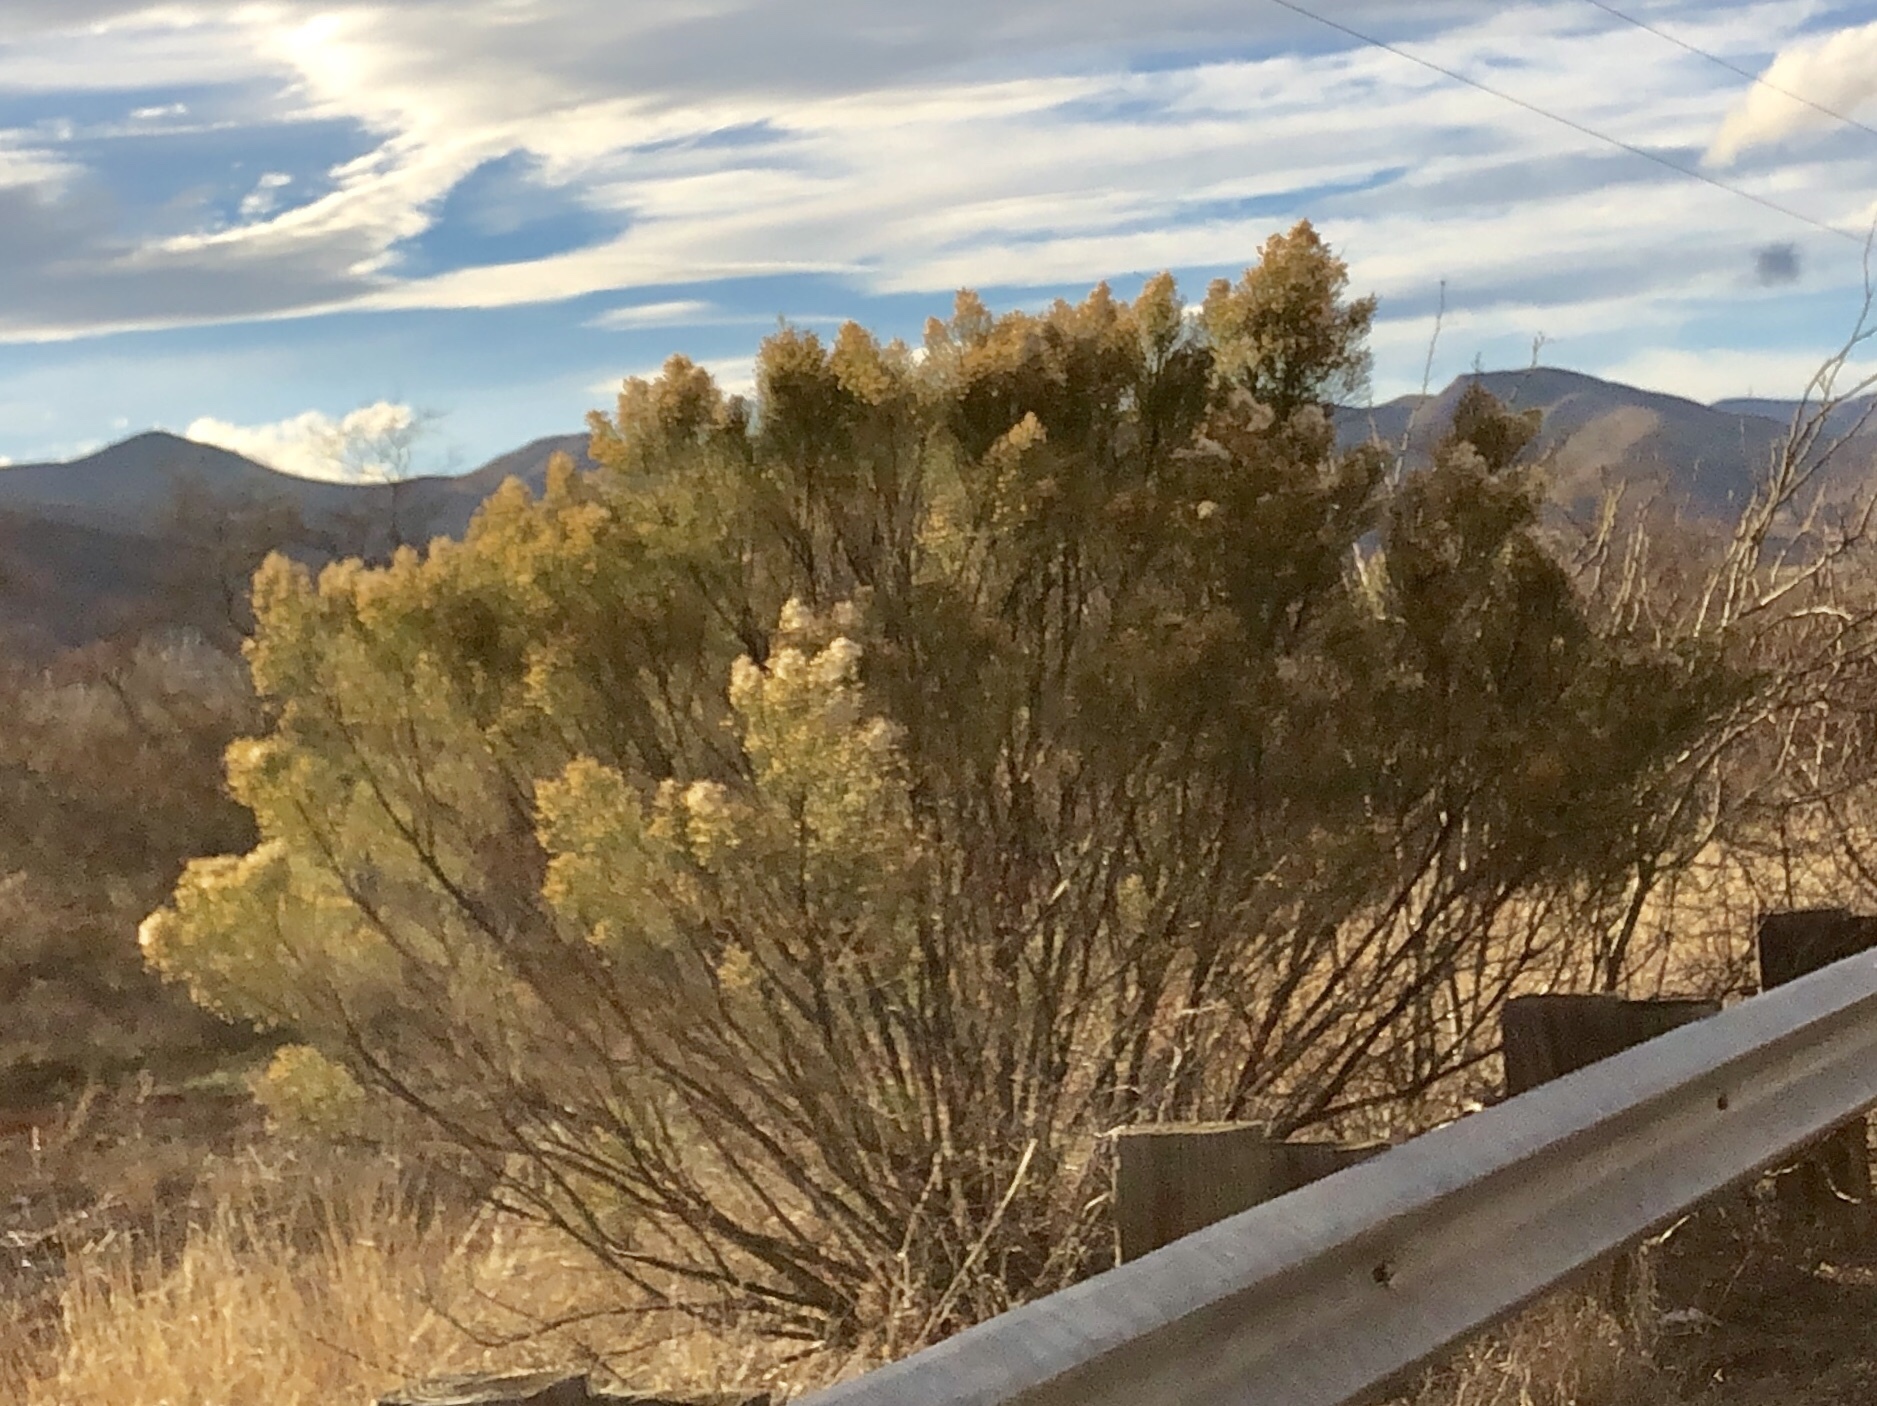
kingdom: Plantae
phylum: Tracheophyta
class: Magnoliopsida
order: Asterales
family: Asteraceae
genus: Baccharis
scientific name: Baccharis sarothroides
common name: Desert-broom
